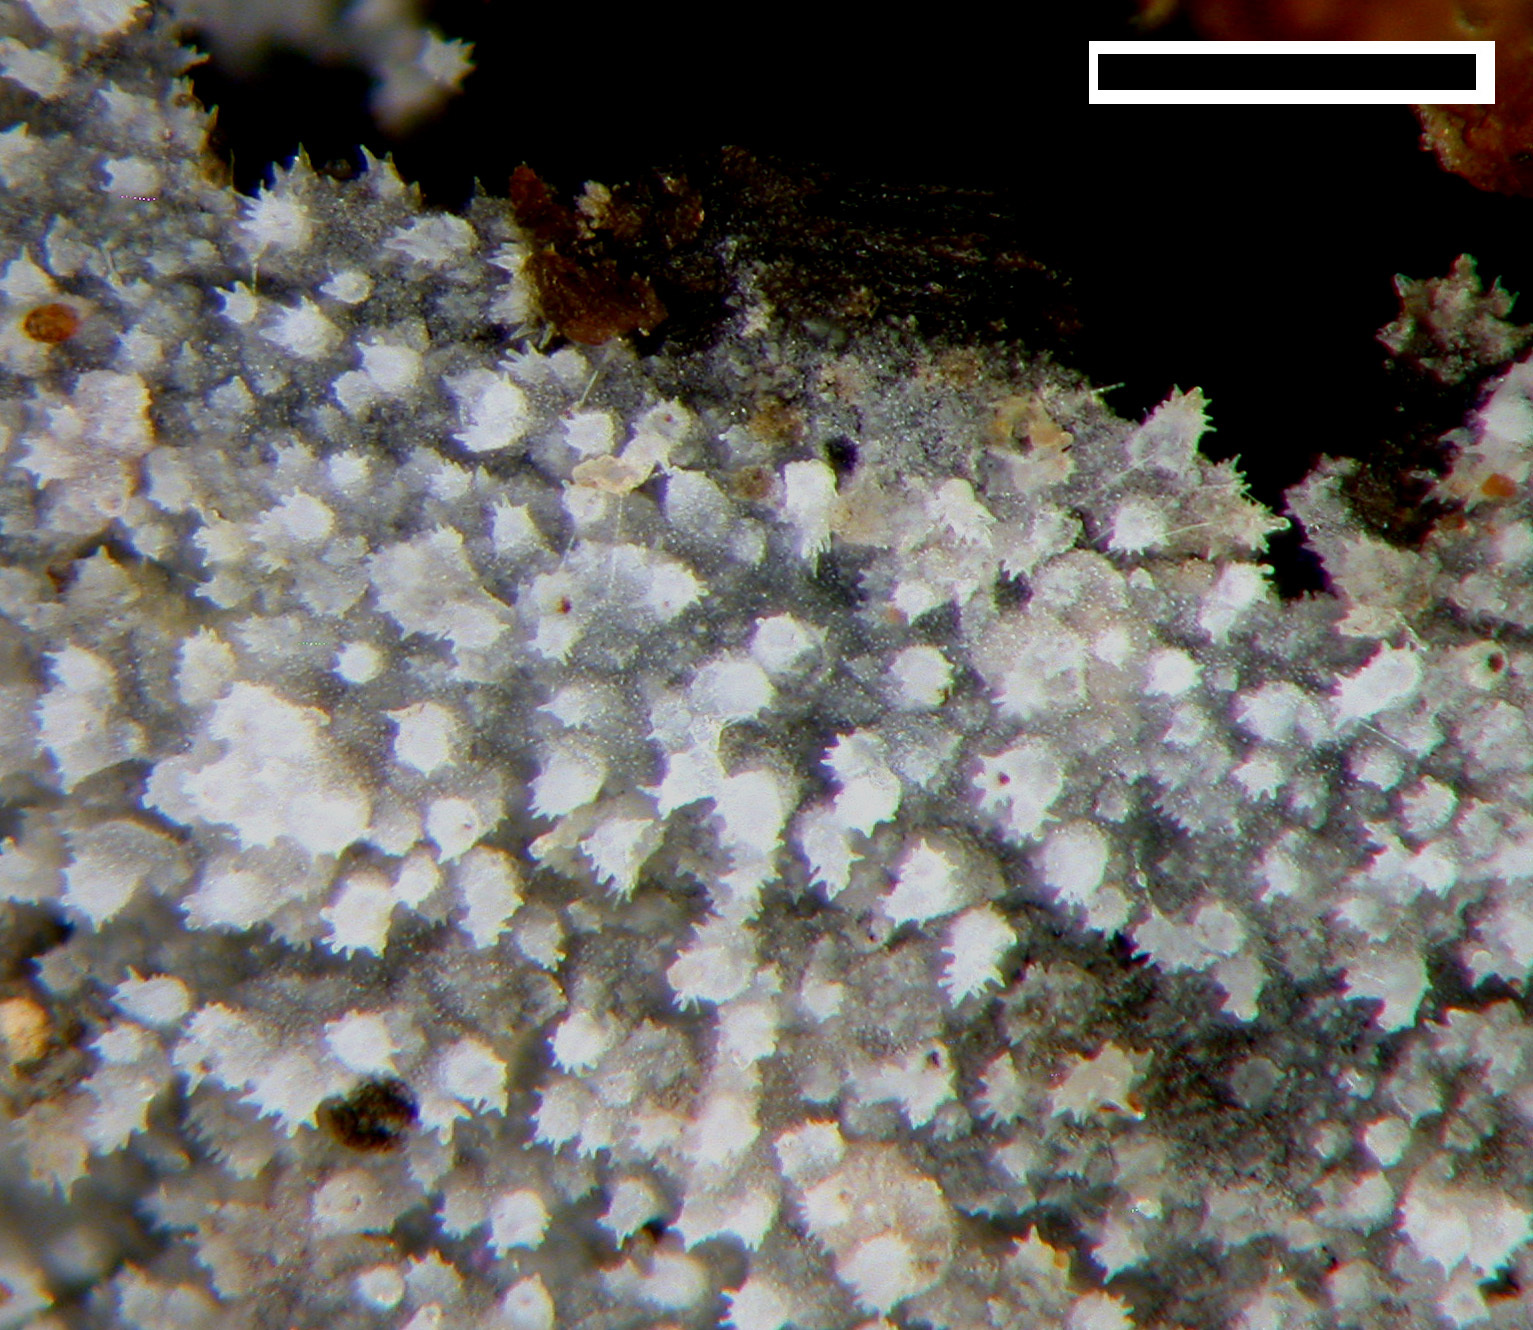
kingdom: Fungi
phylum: Basidiomycota
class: Agaricomycetes
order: Polyporales
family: Meruliaceae
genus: Scopuloides
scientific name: Scopuloides hydnoides
